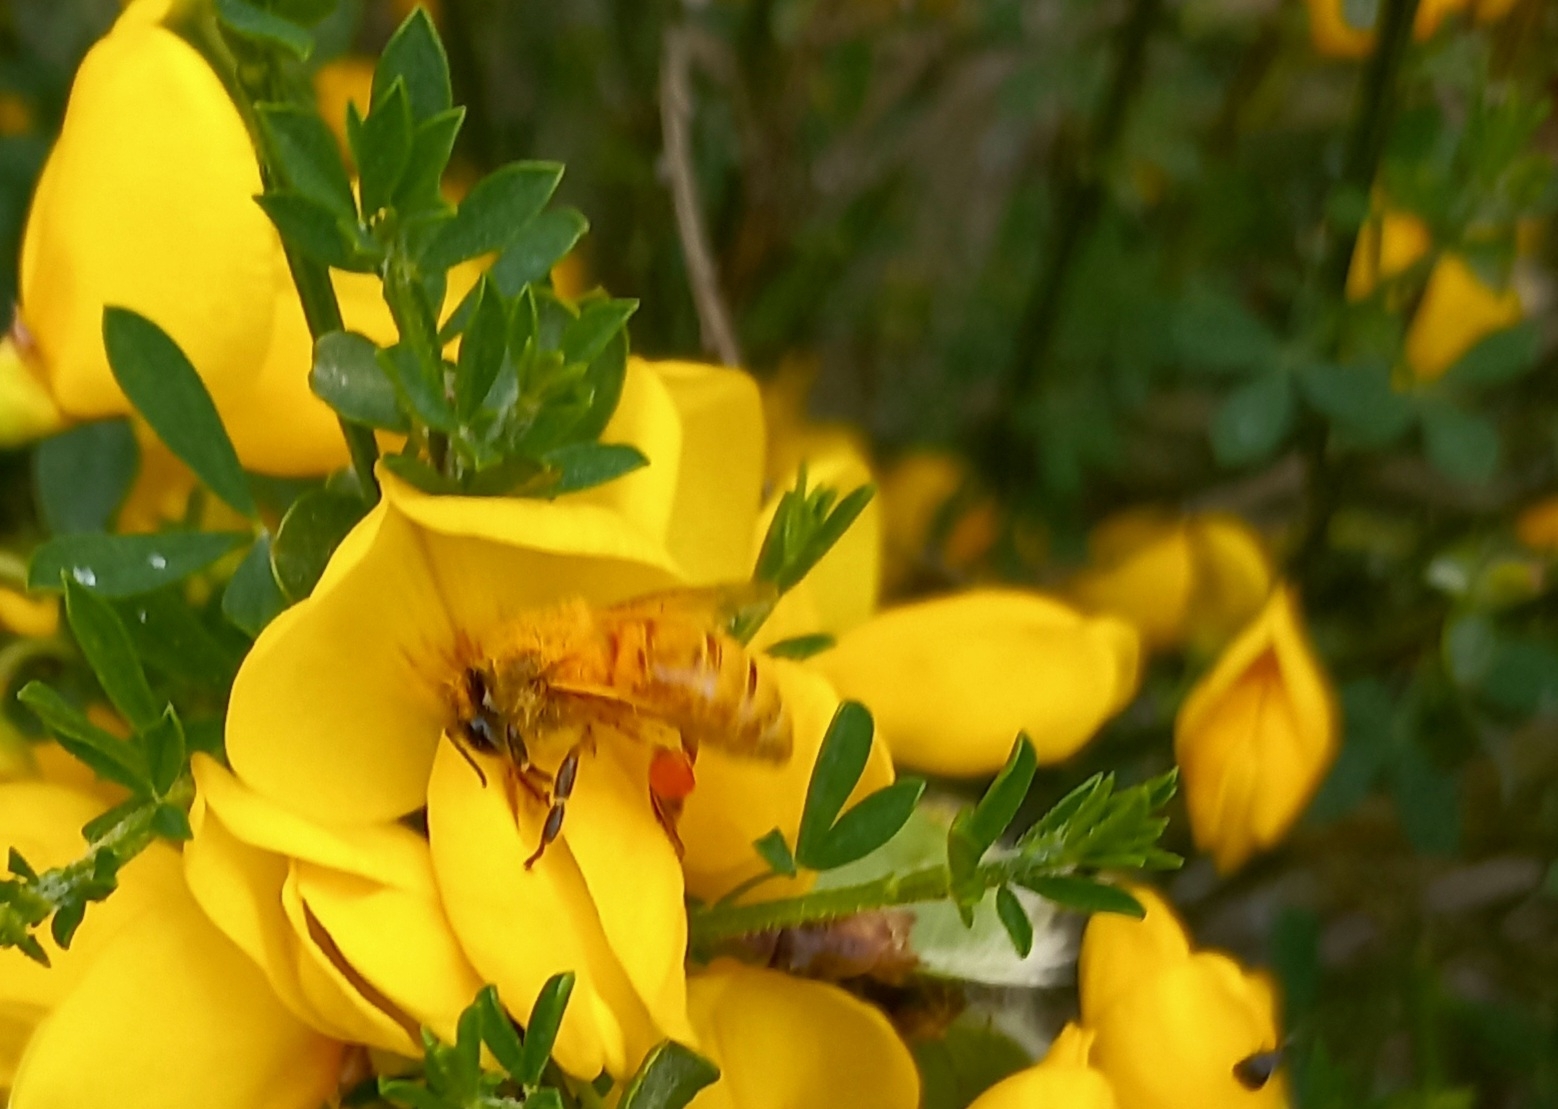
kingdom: Animalia
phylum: Arthropoda
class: Insecta
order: Hymenoptera
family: Apidae
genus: Apis
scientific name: Apis mellifera
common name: Honey bee
